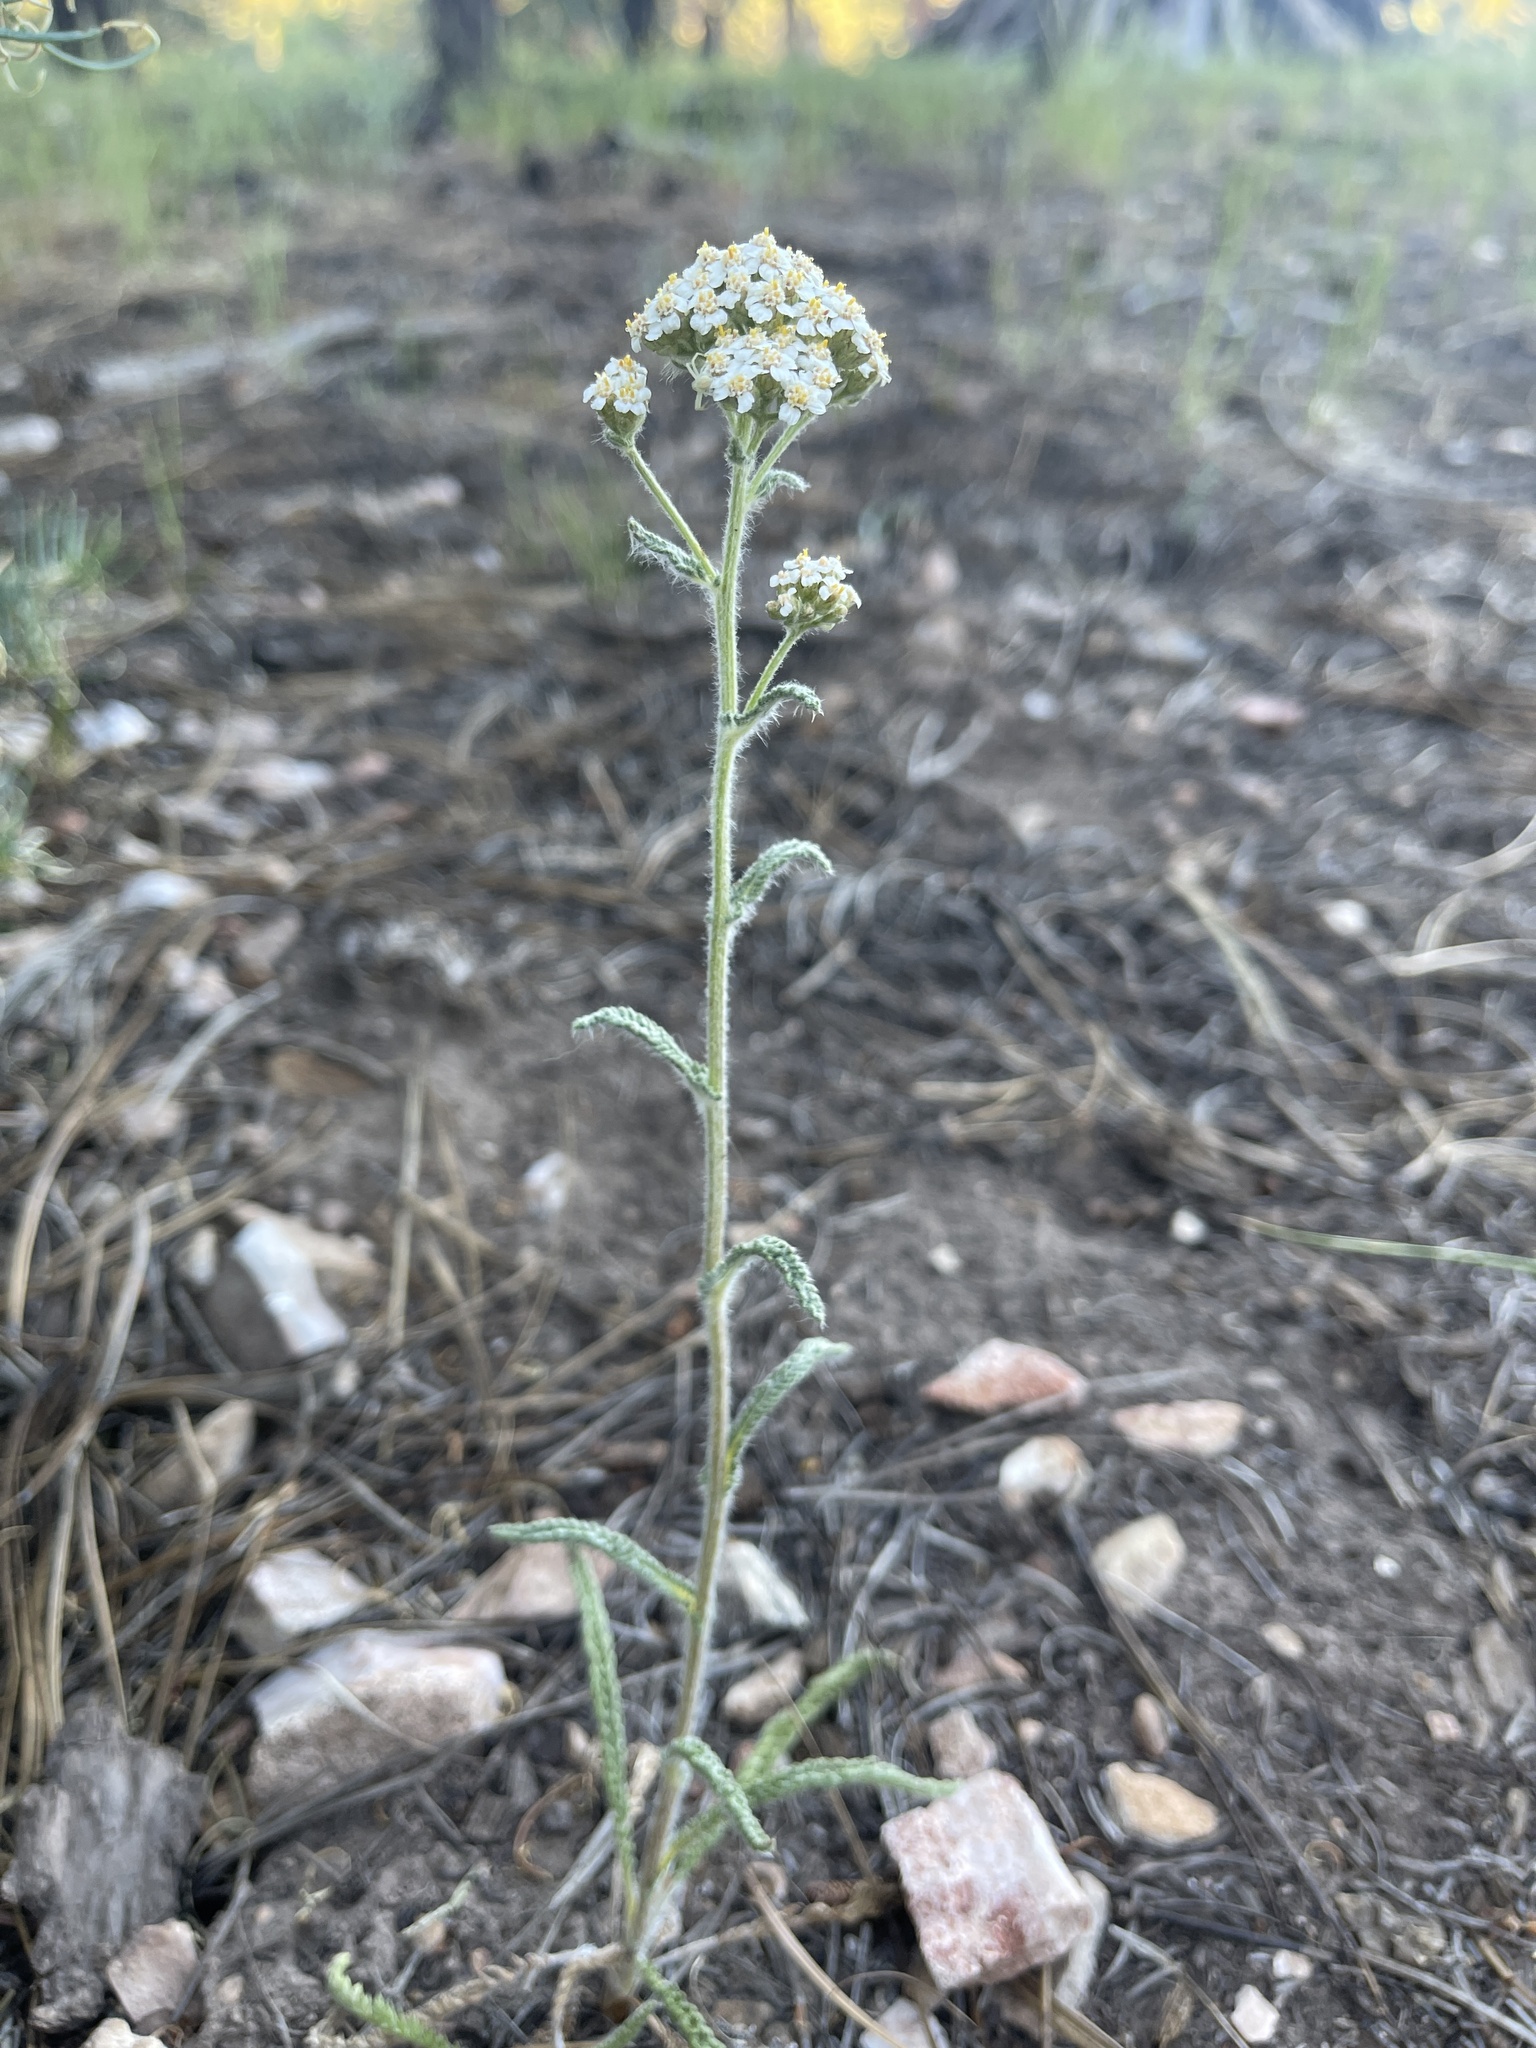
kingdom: Plantae
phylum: Tracheophyta
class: Magnoliopsida
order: Asterales
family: Asteraceae
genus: Achillea
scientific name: Achillea millefolium
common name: Yarrow
